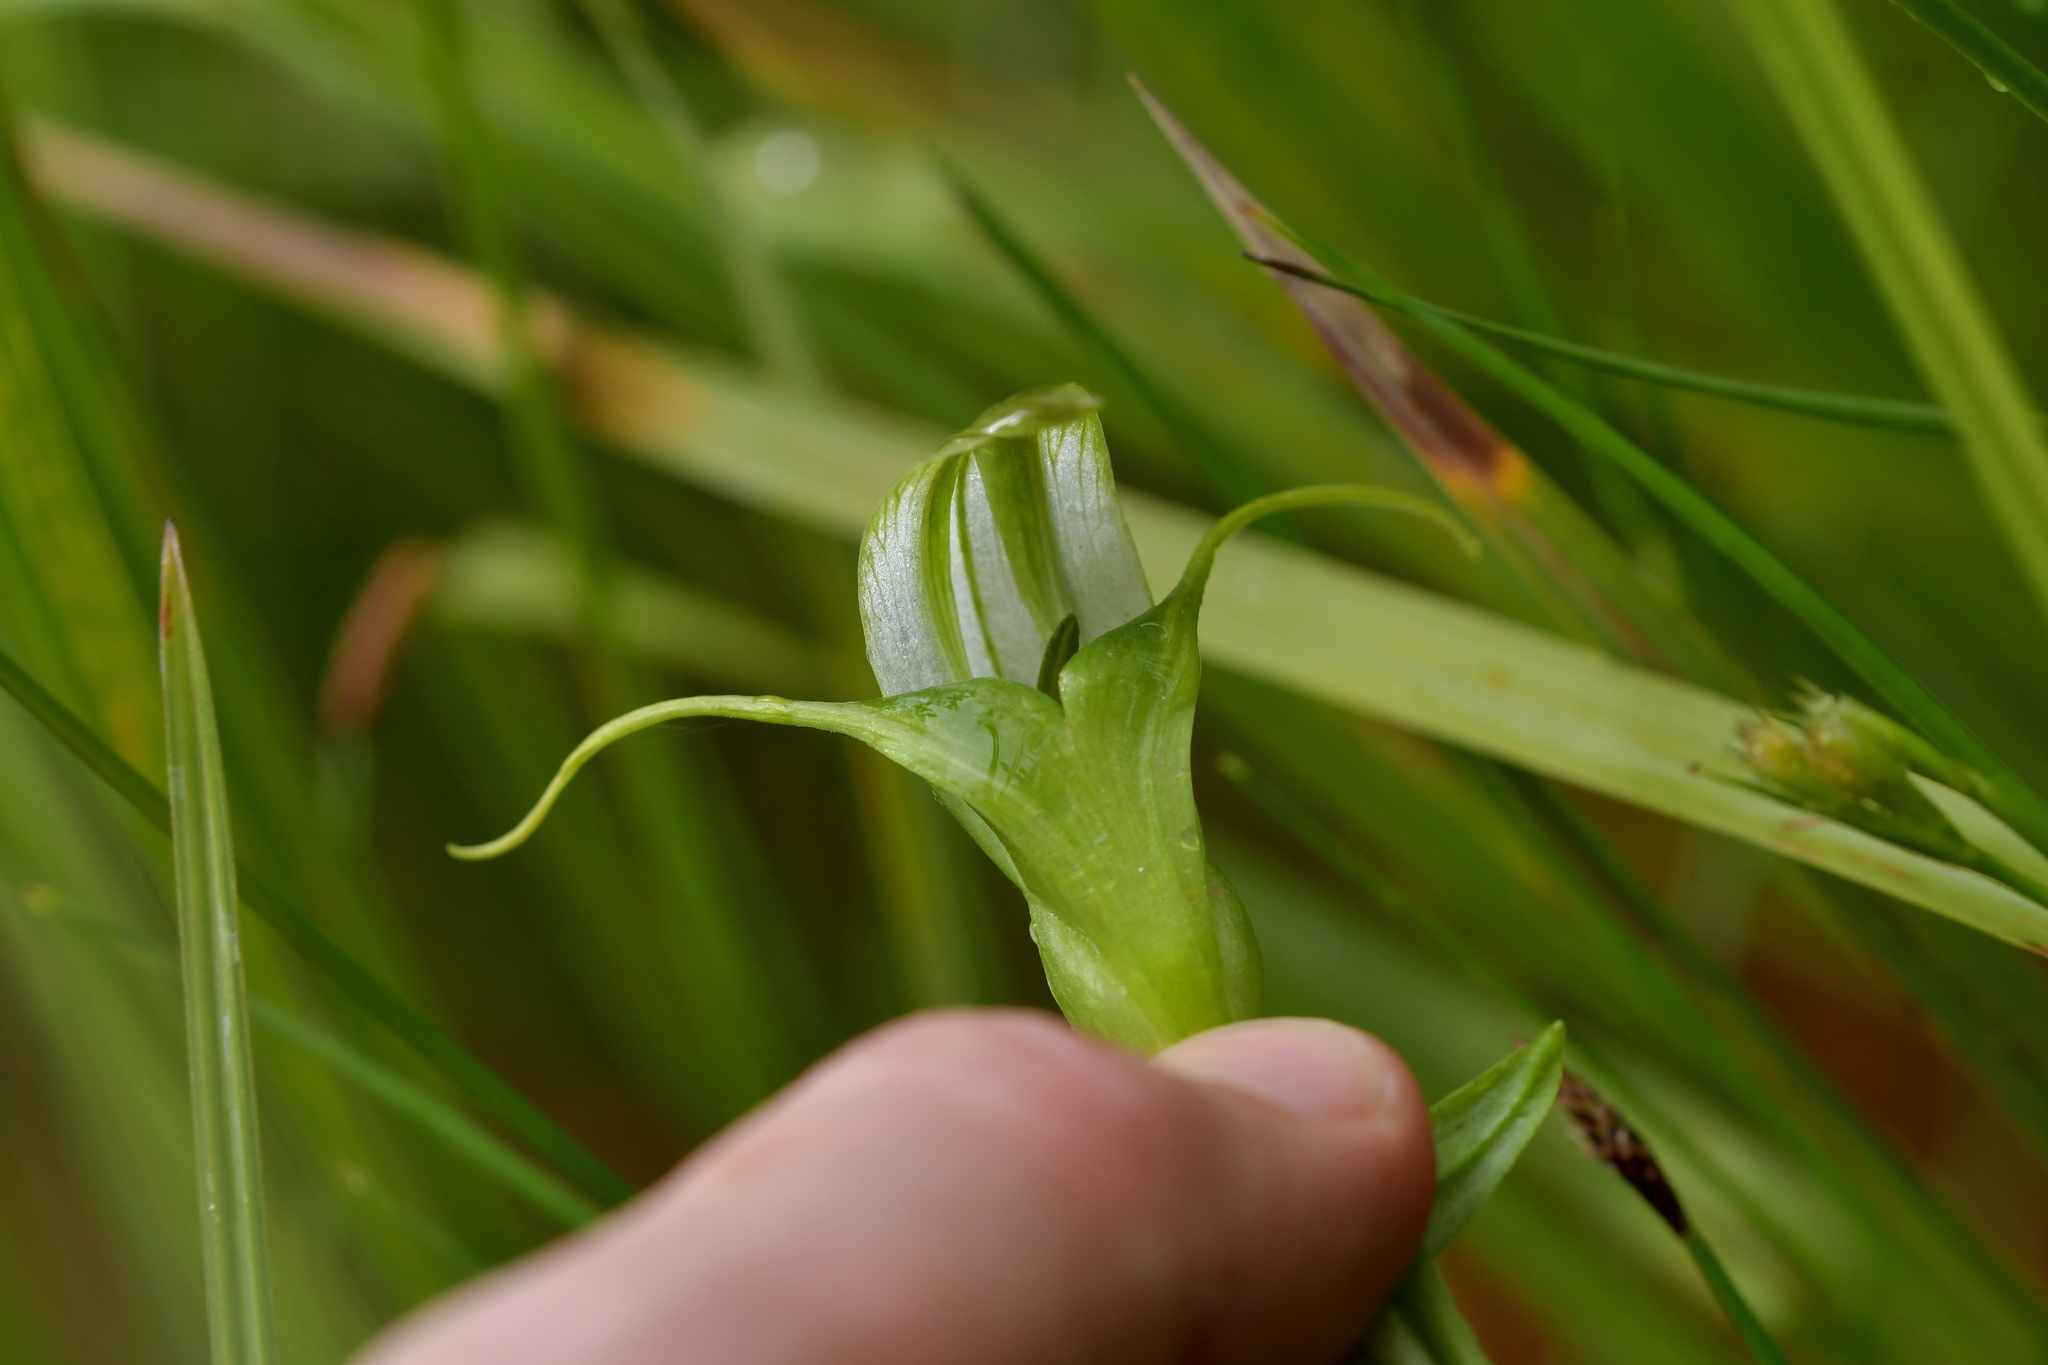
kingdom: Plantae
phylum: Tracheophyta
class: Liliopsida
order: Asparagales
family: Orchidaceae
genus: Pterostylis
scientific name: Pterostylis micromega
